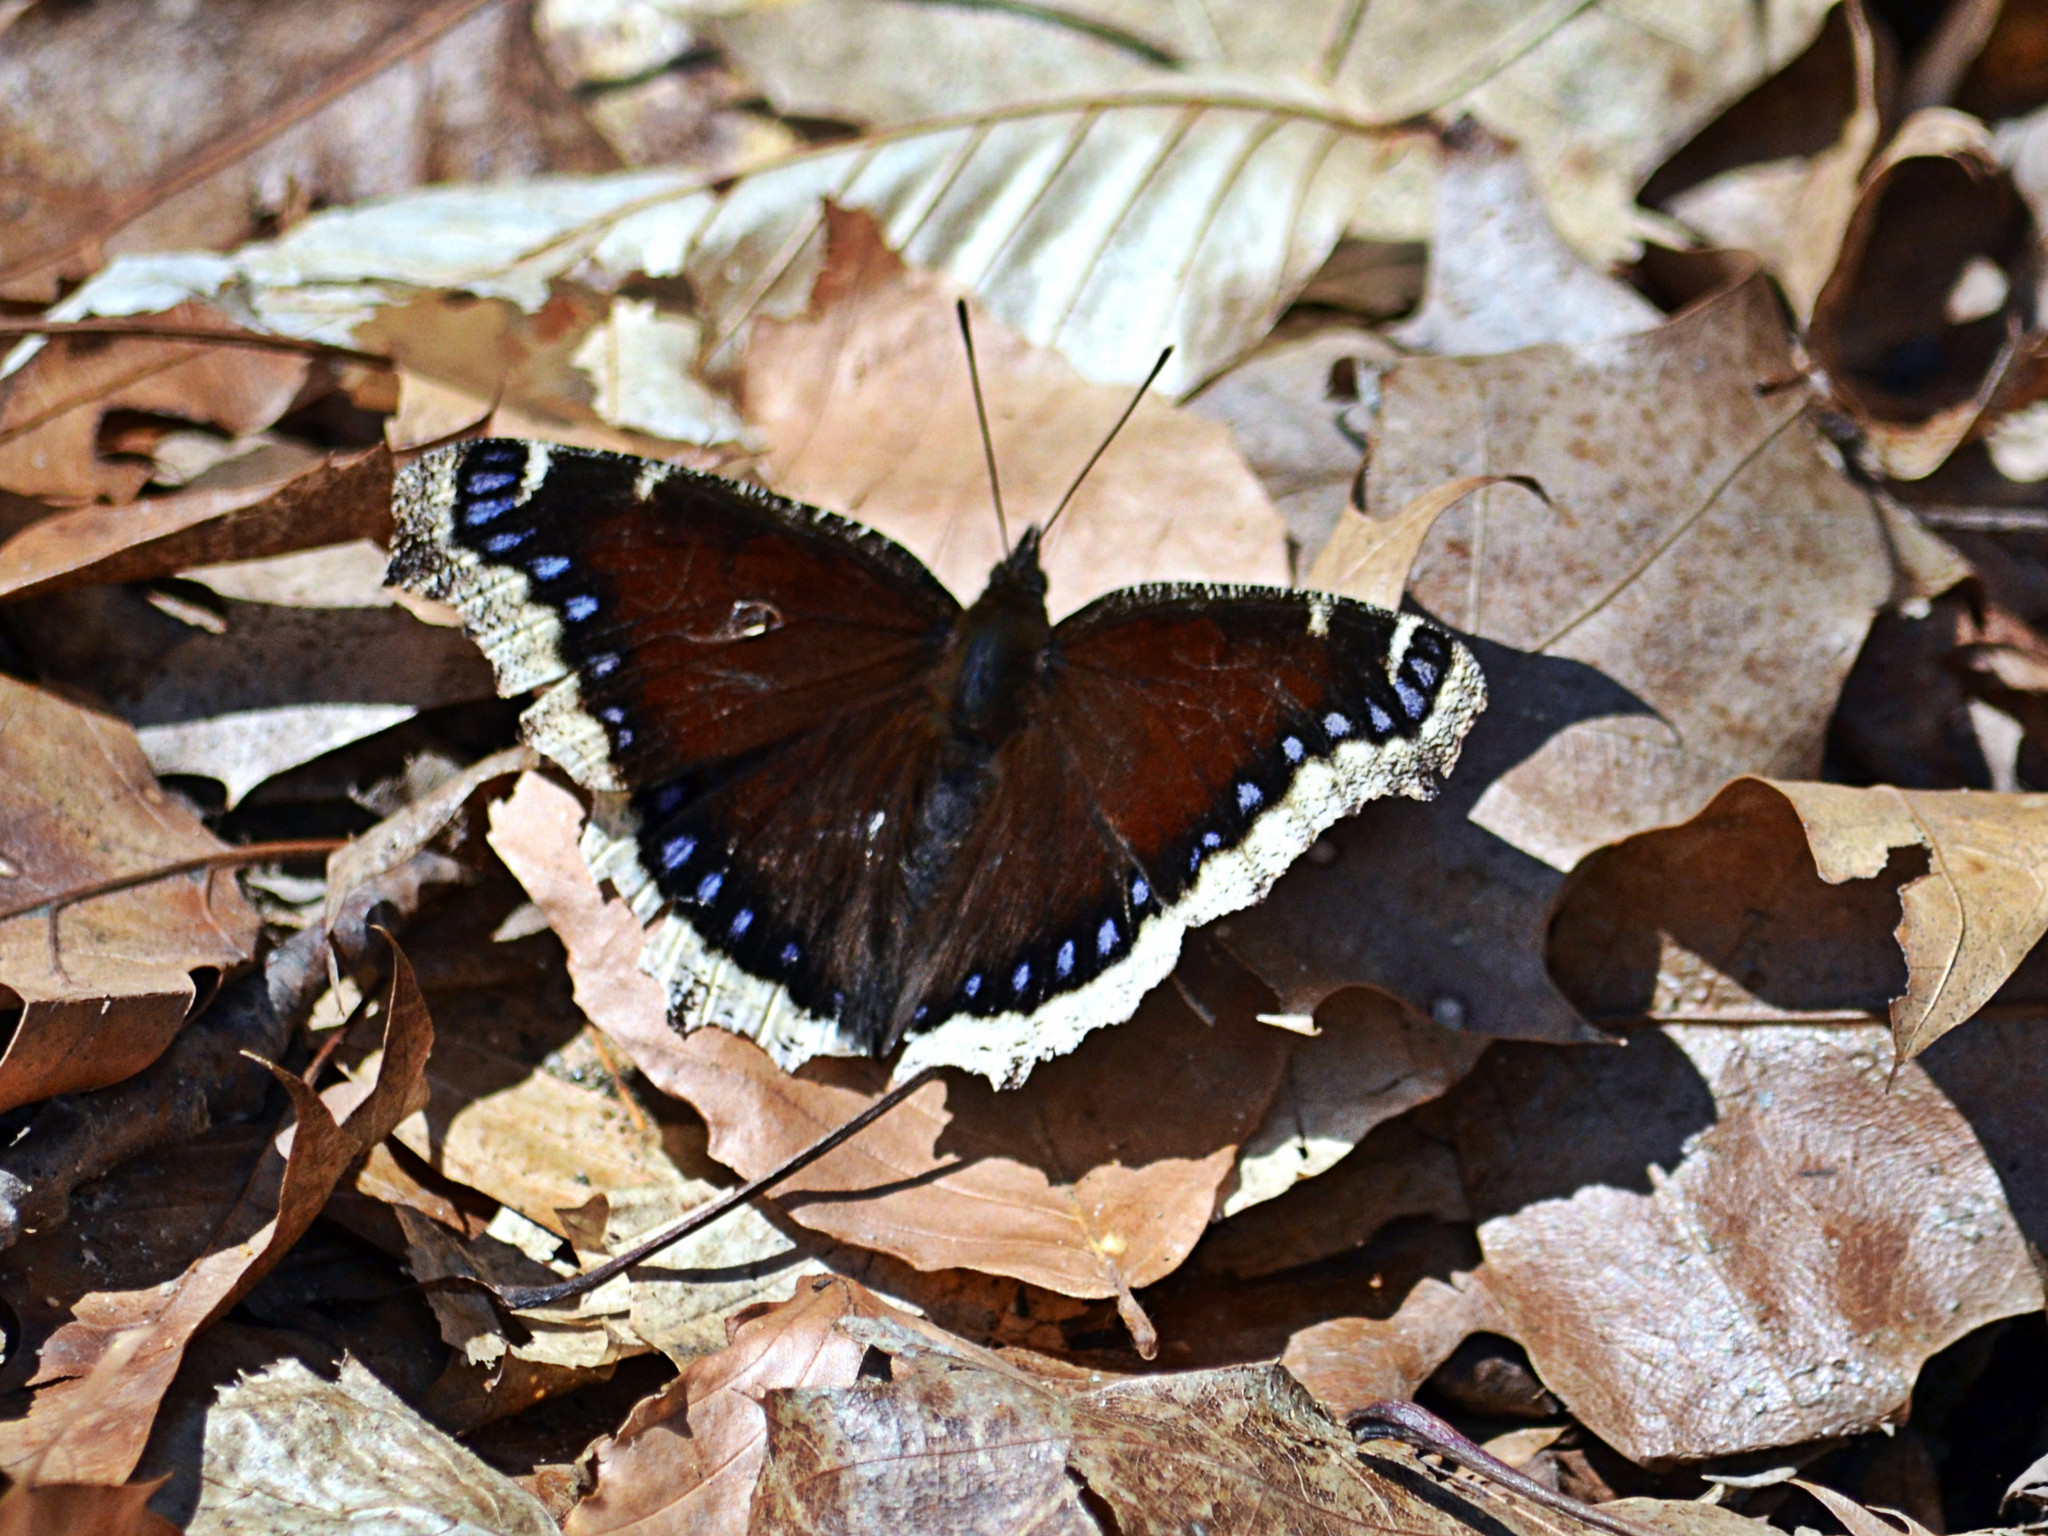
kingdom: Animalia
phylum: Arthropoda
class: Insecta
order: Lepidoptera
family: Nymphalidae
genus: Nymphalis
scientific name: Nymphalis antiopa
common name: Camberwell beauty
